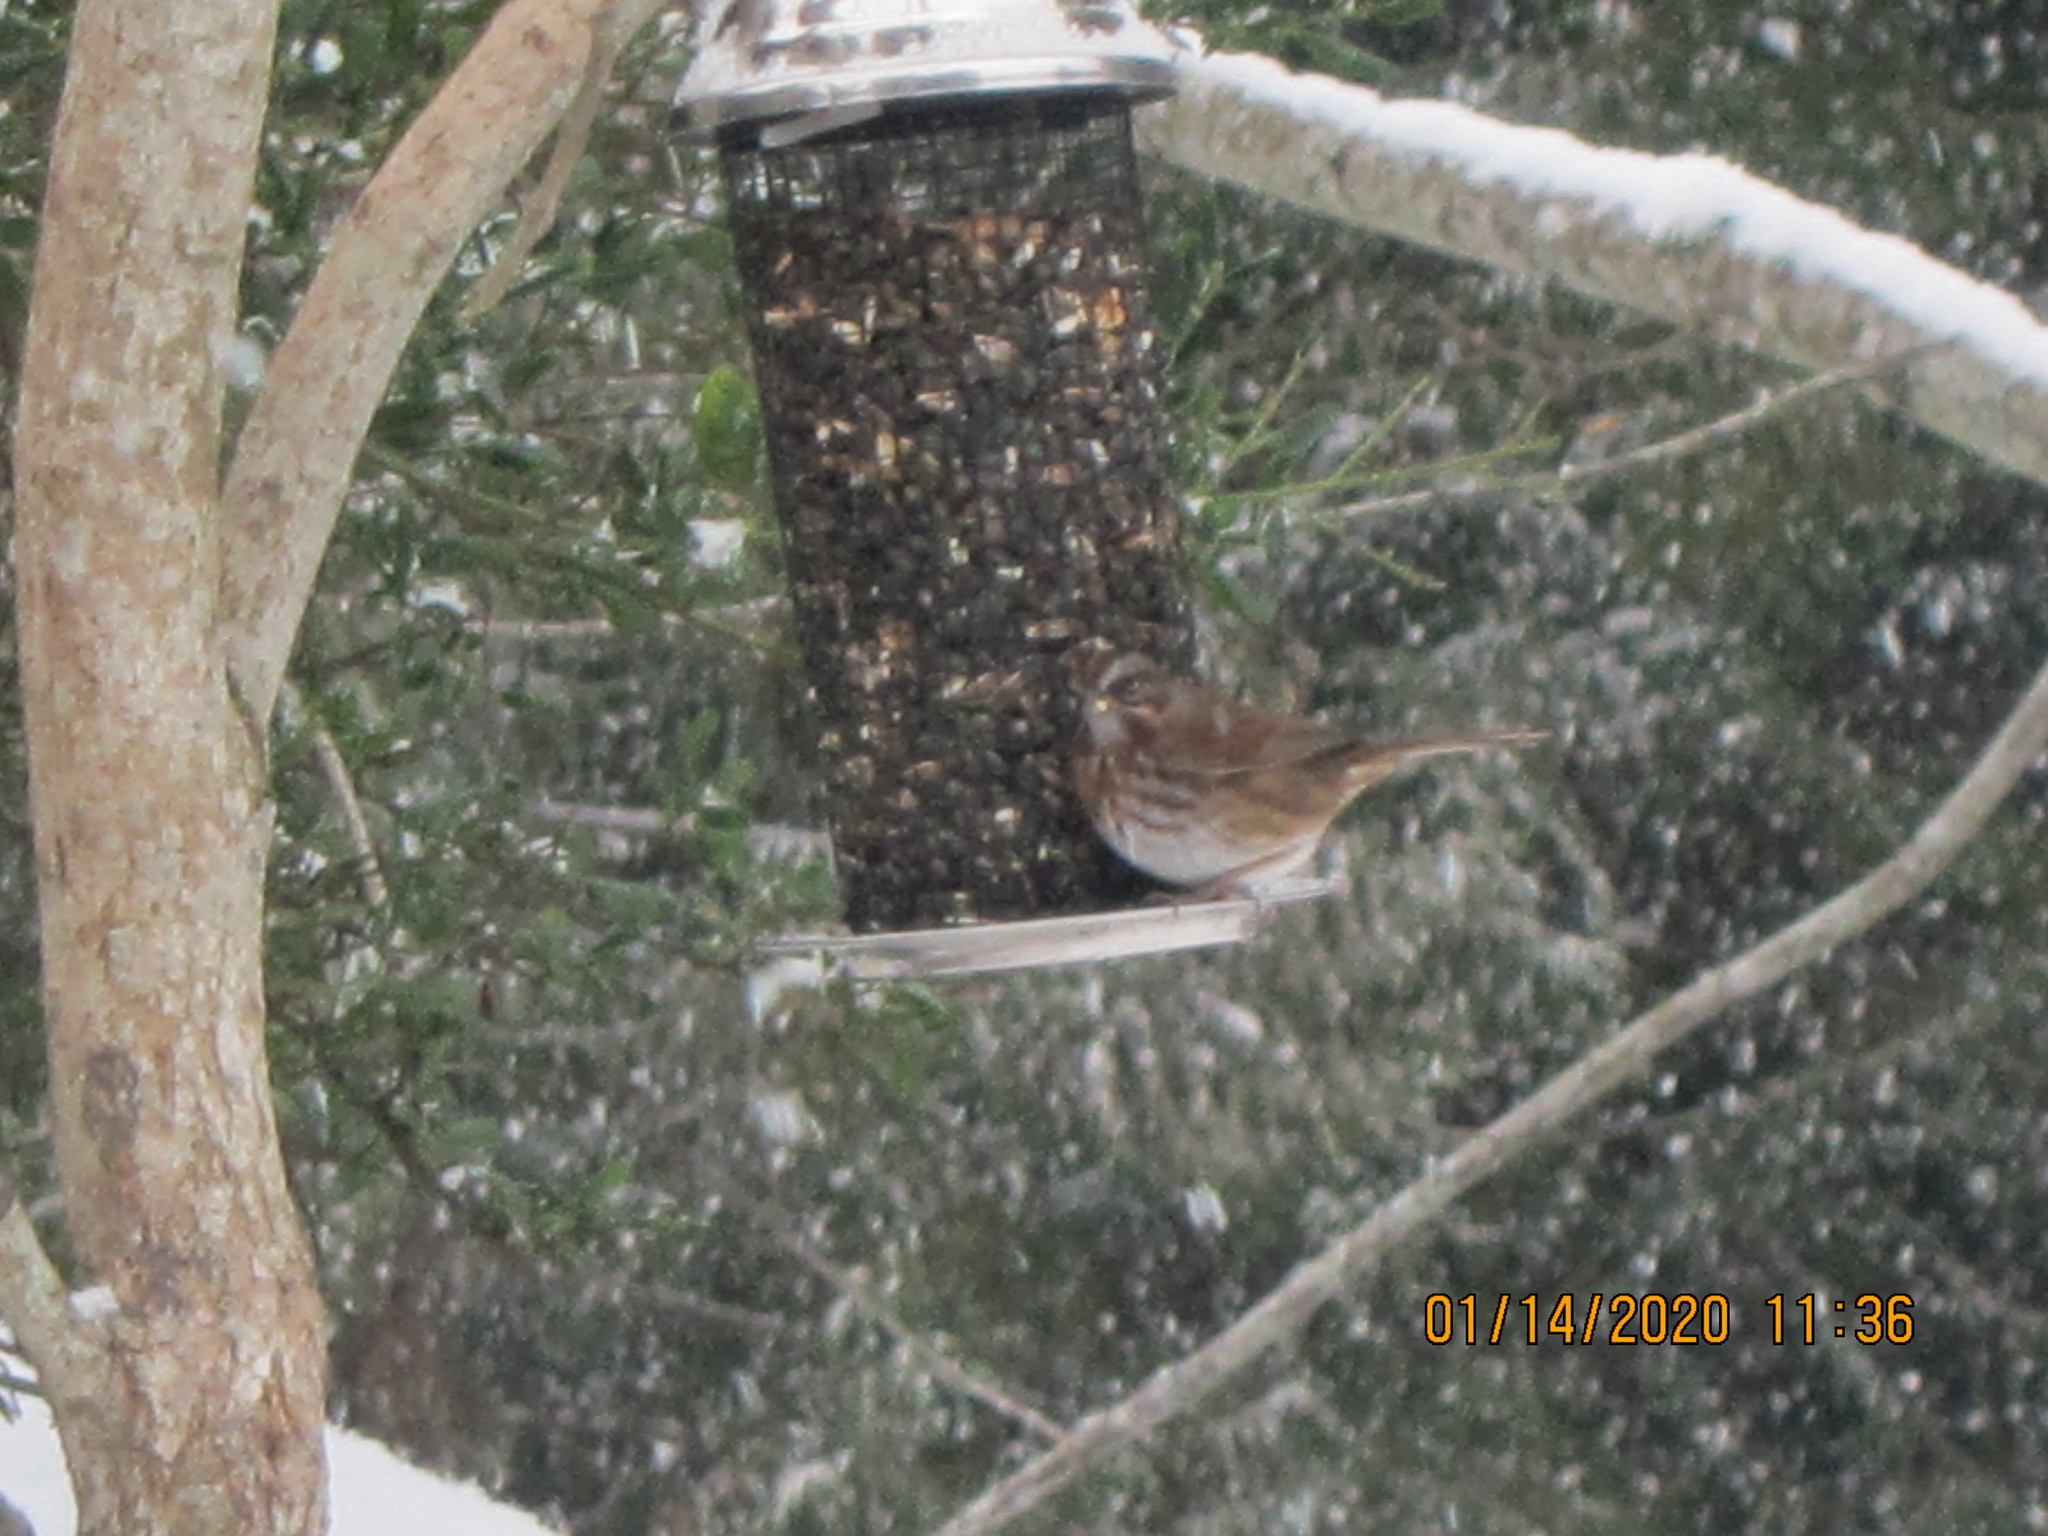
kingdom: Animalia
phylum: Chordata
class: Aves
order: Passeriformes
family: Passerellidae
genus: Melospiza
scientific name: Melospiza melodia
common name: Song sparrow
